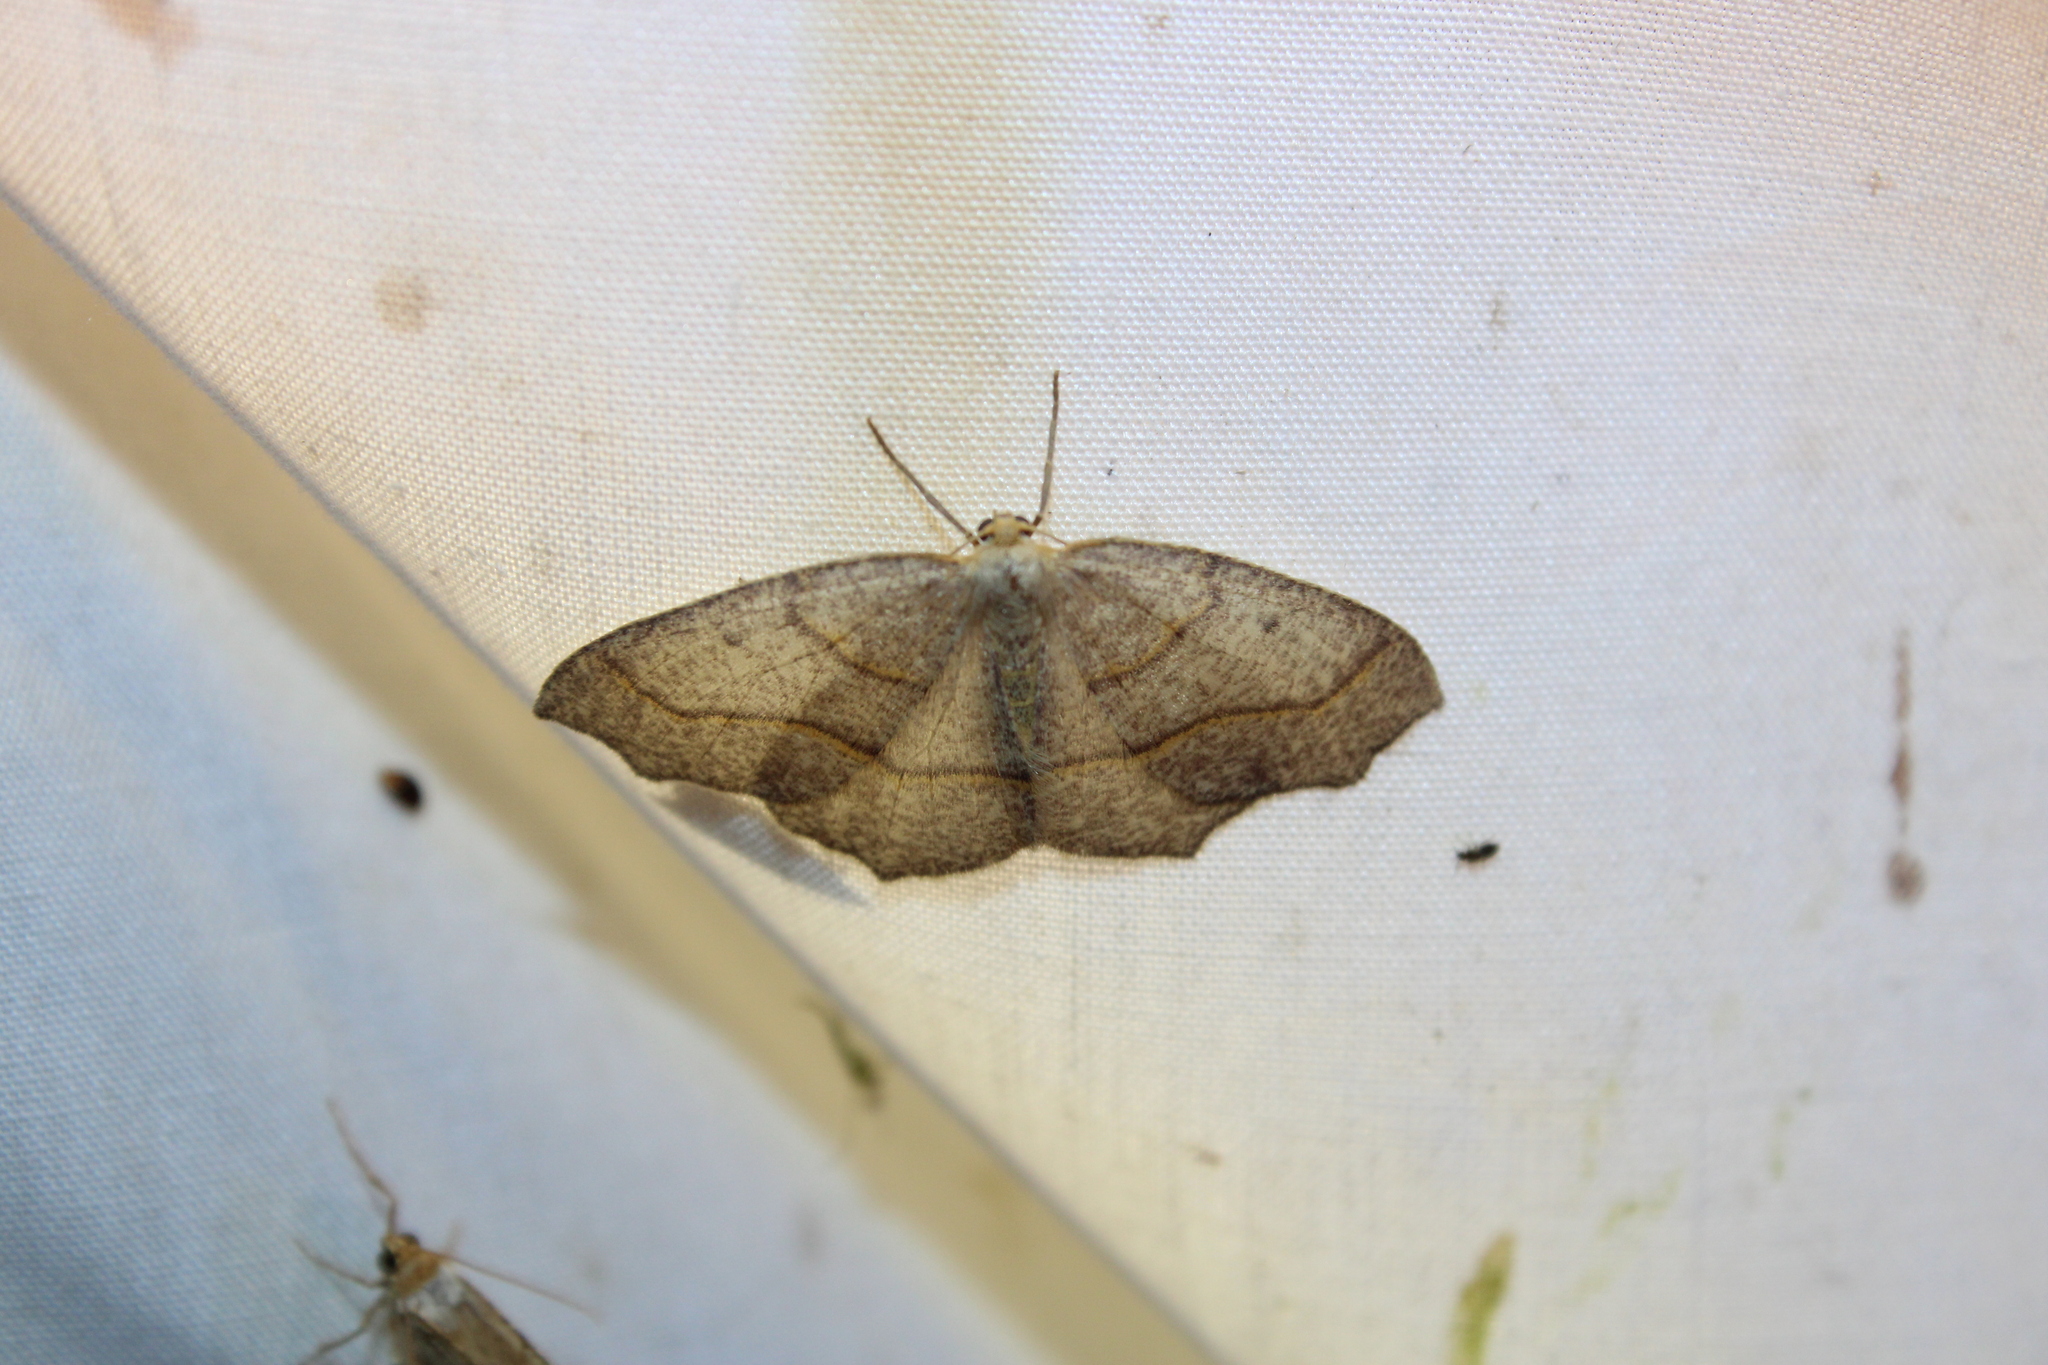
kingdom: Animalia
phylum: Arthropoda
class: Insecta
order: Lepidoptera
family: Geometridae
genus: Lambdina
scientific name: Lambdina fiscellaria
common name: Hemlock looper
